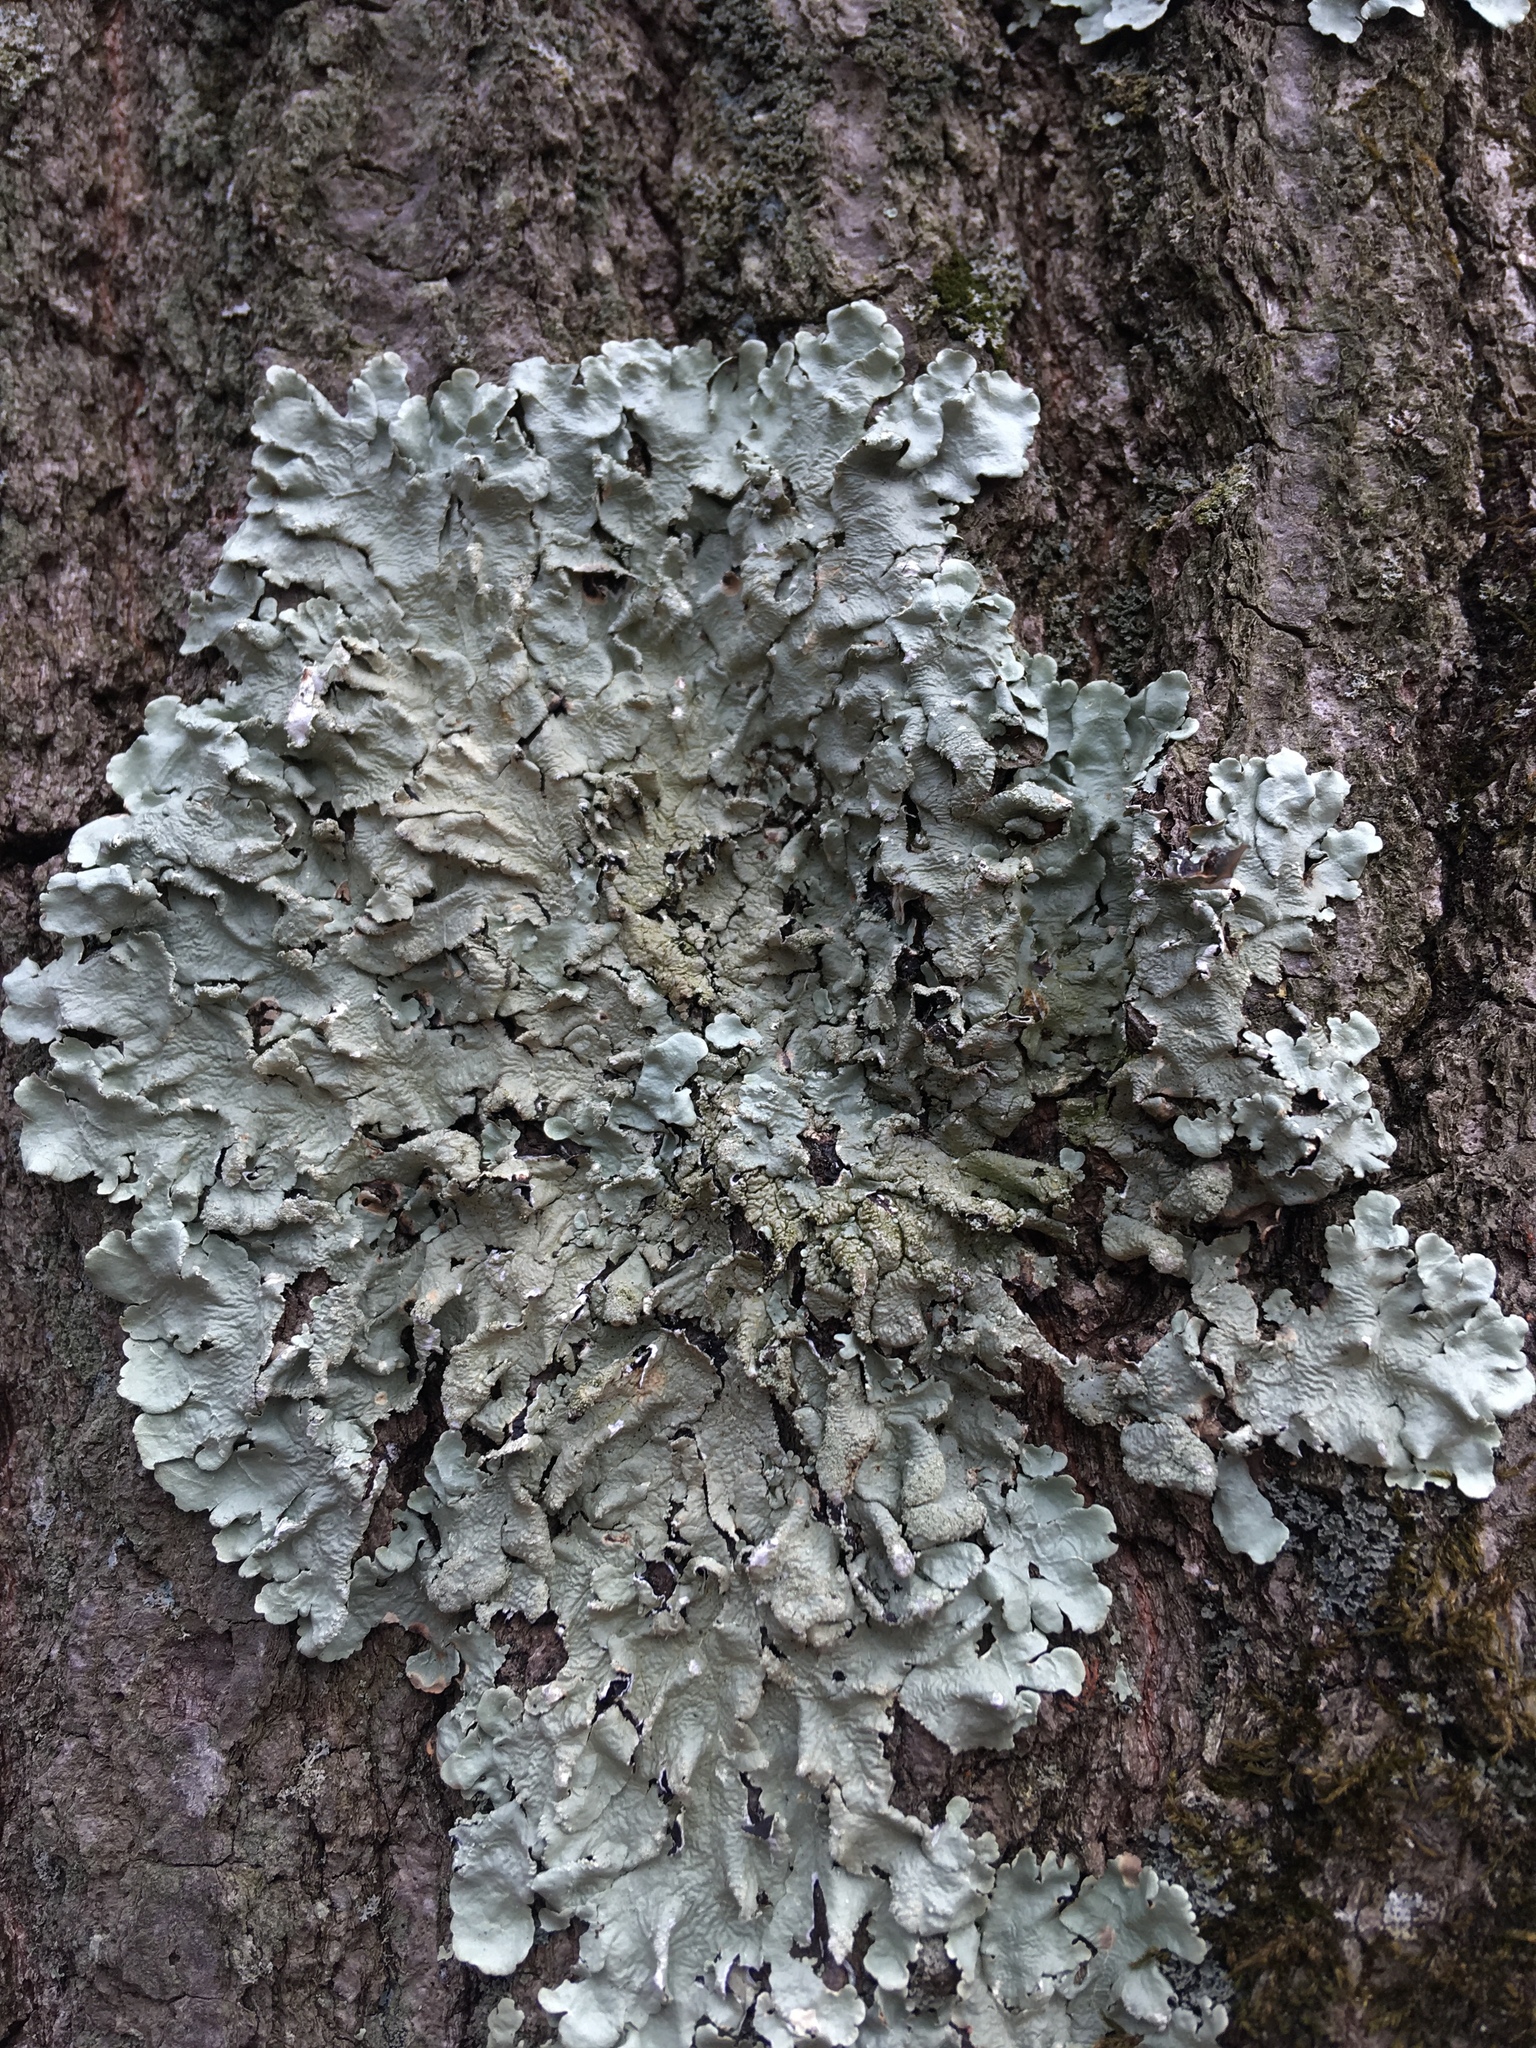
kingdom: Fungi
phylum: Ascomycota
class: Lecanoromycetes
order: Lecanorales
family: Parmeliaceae
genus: Flavoparmelia
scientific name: Flavoparmelia caperata
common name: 40-mile per hour lichen
